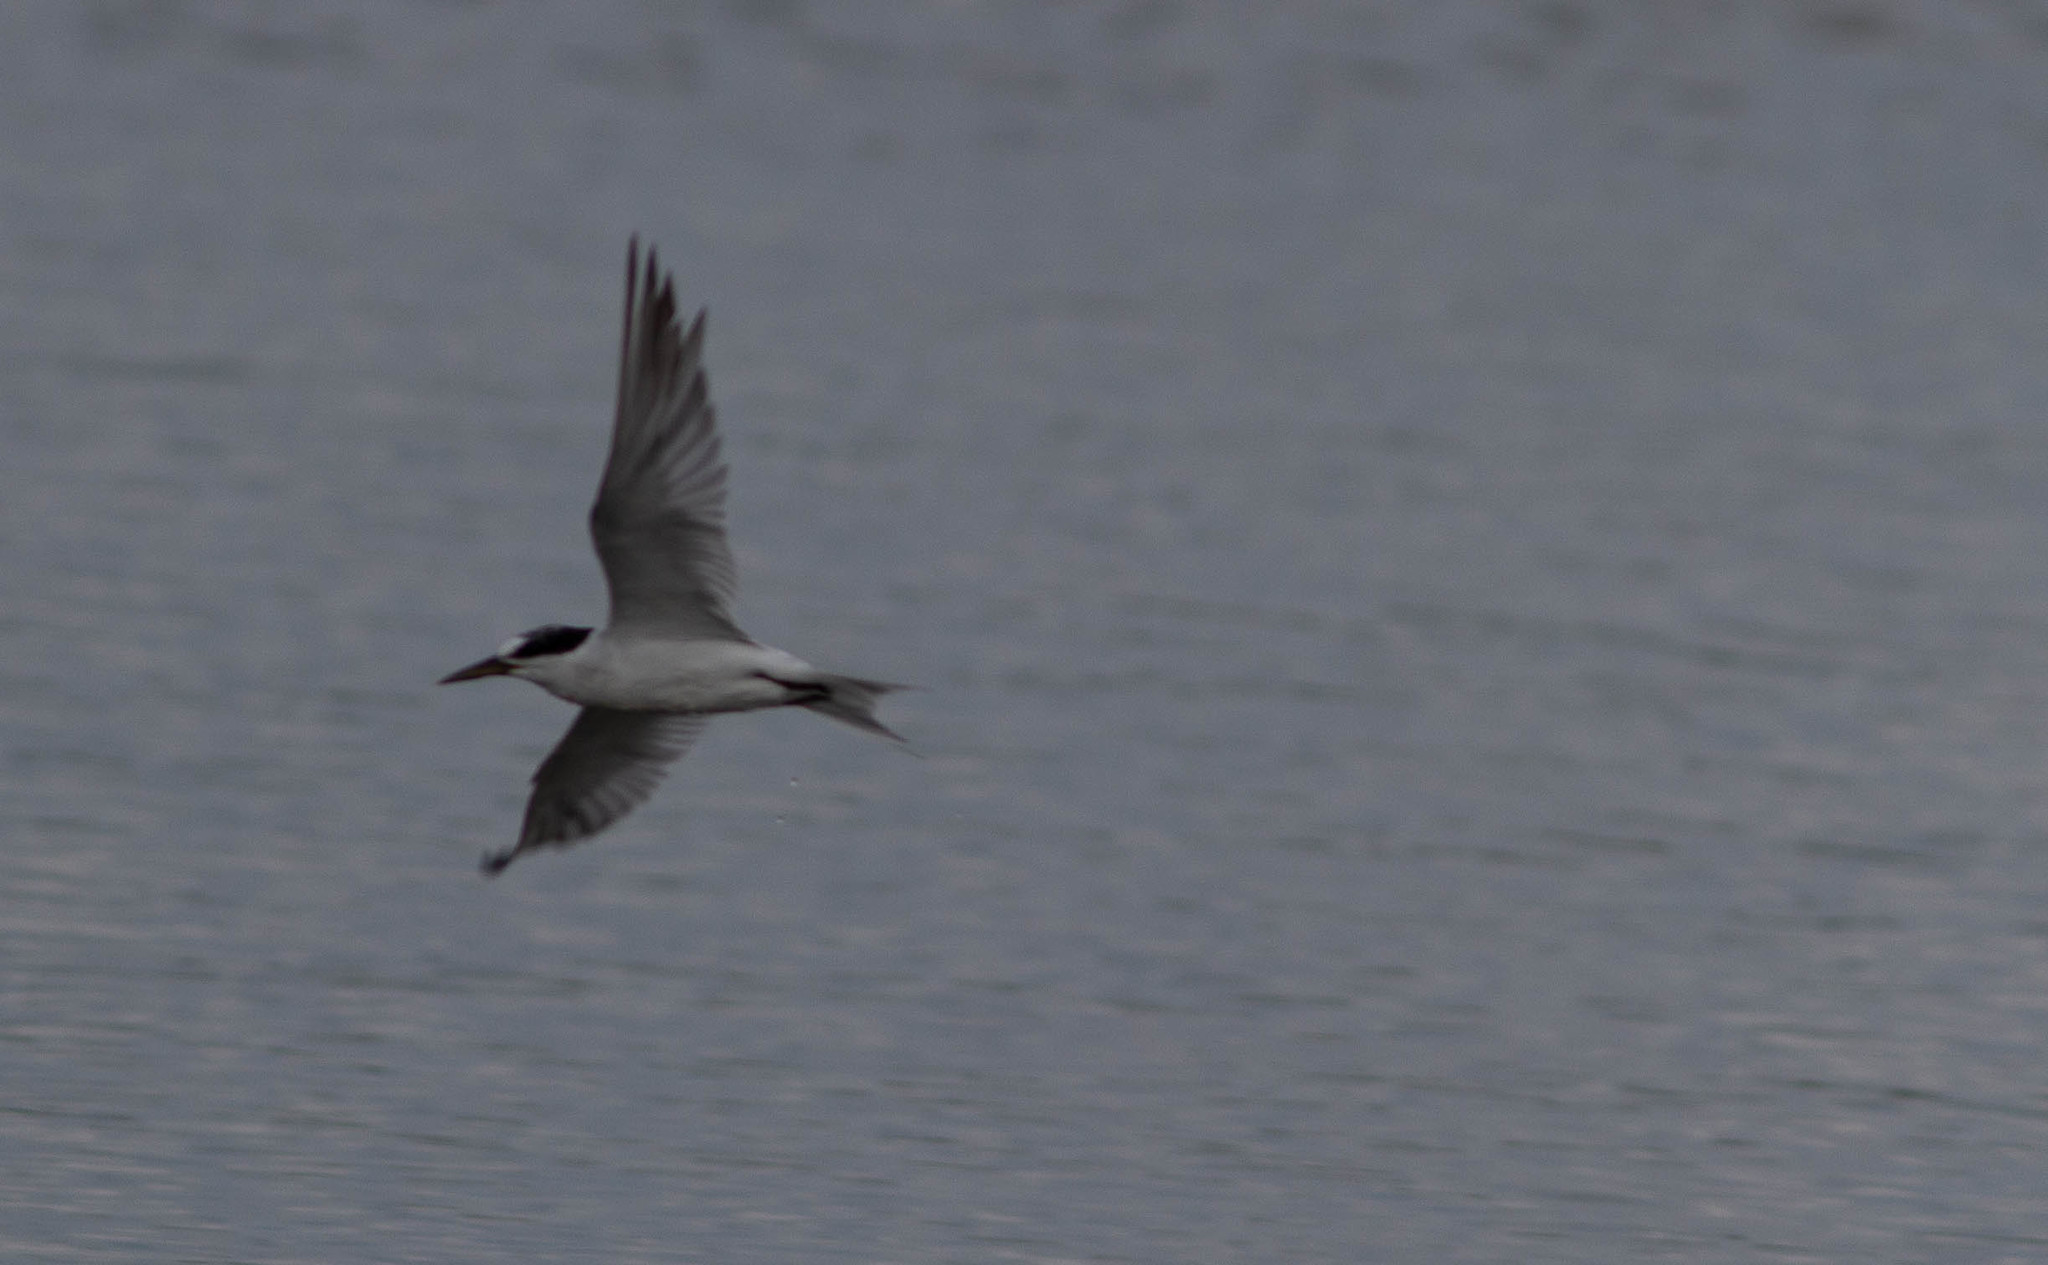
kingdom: Animalia
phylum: Chordata
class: Aves
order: Charadriiformes
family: Laridae
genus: Sternula
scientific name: Sternula antillarum
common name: Least tern
